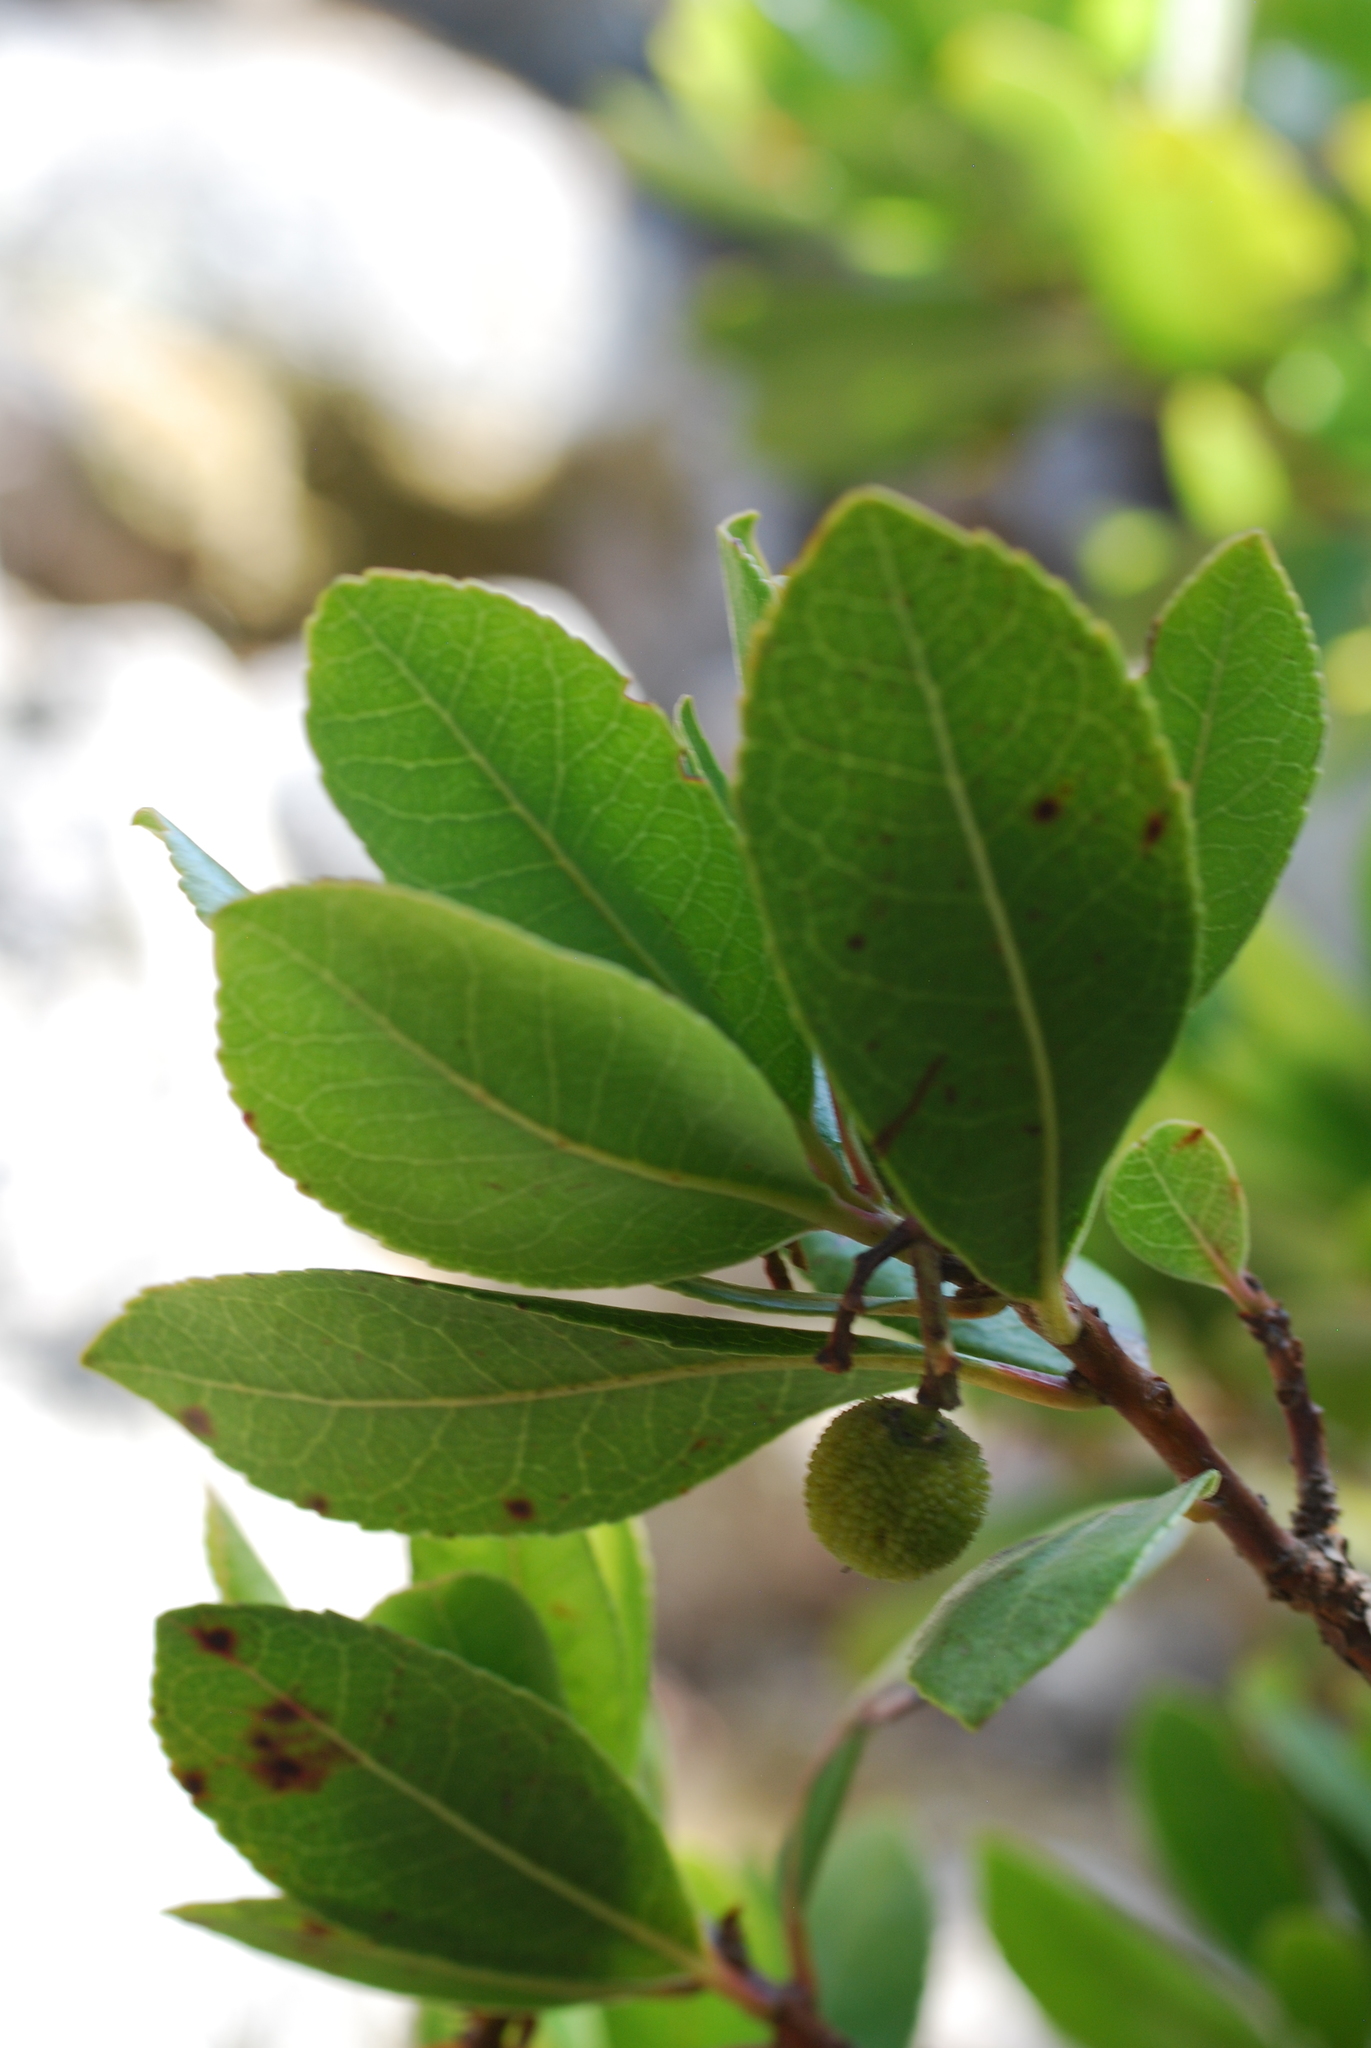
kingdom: Plantae
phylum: Tracheophyta
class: Magnoliopsida
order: Ericales
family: Ericaceae
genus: Arbutus
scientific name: Arbutus unedo
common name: Strawberry-tree
